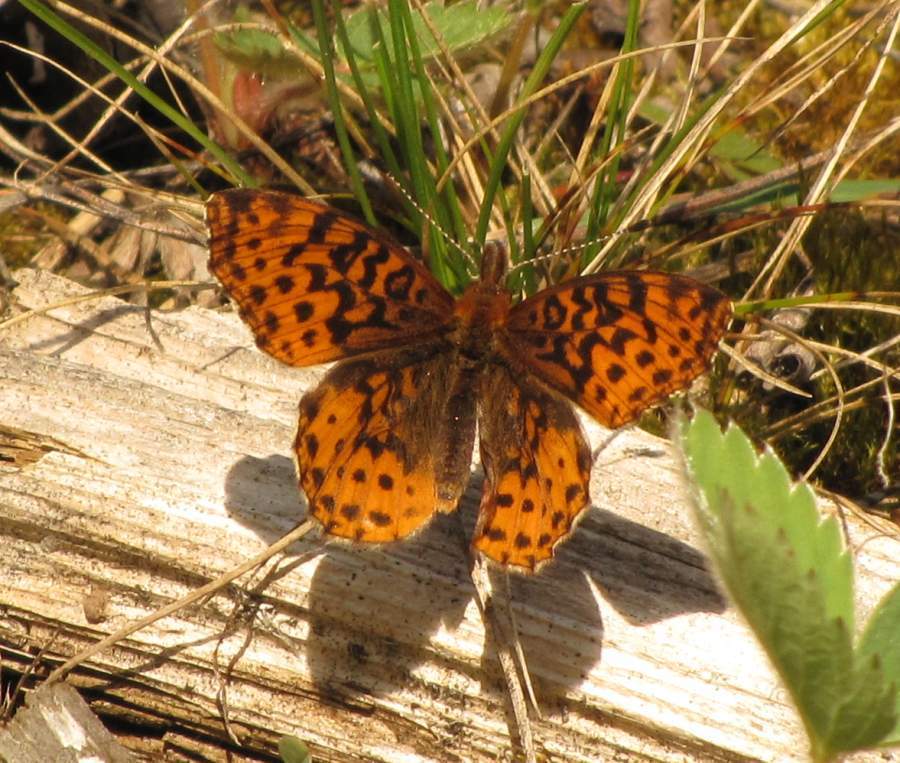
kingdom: Animalia
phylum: Arthropoda
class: Insecta
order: Lepidoptera
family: Nymphalidae
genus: Clossiana
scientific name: Clossiana toddi
